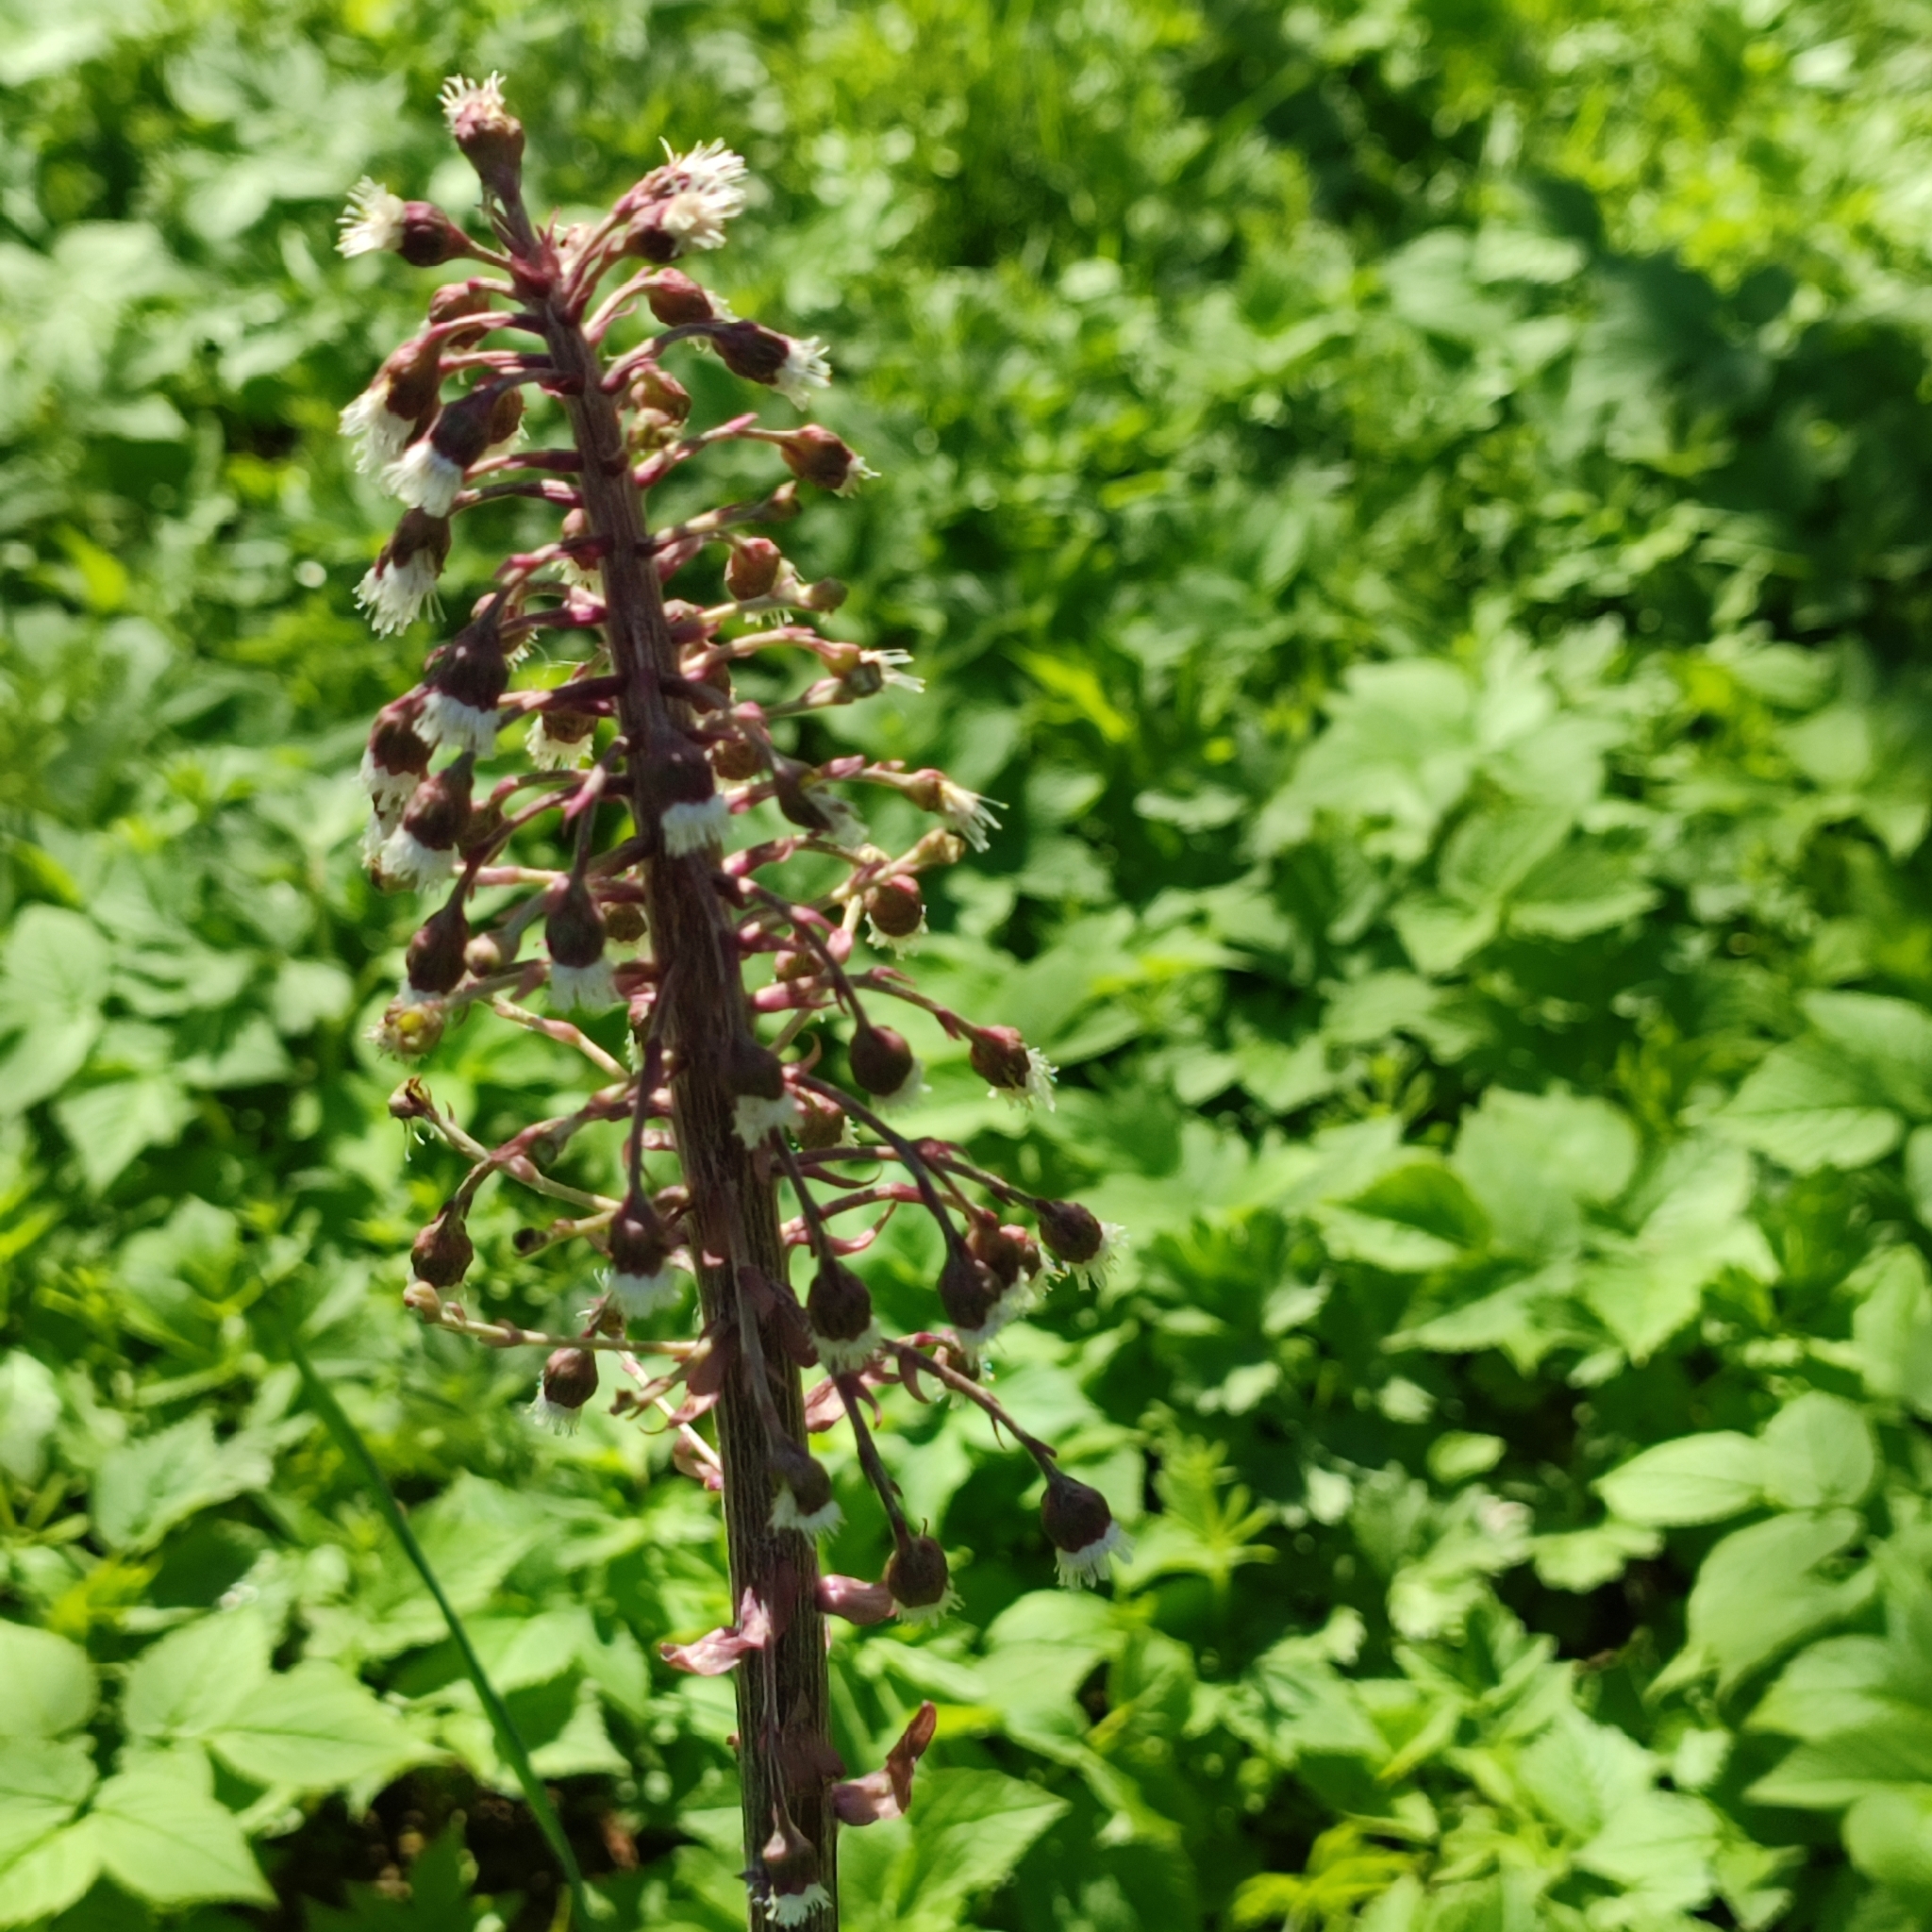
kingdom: Plantae
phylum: Tracheophyta
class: Magnoliopsida
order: Asterales
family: Asteraceae
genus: Petasites
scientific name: Petasites hybridus
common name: Butterbur
